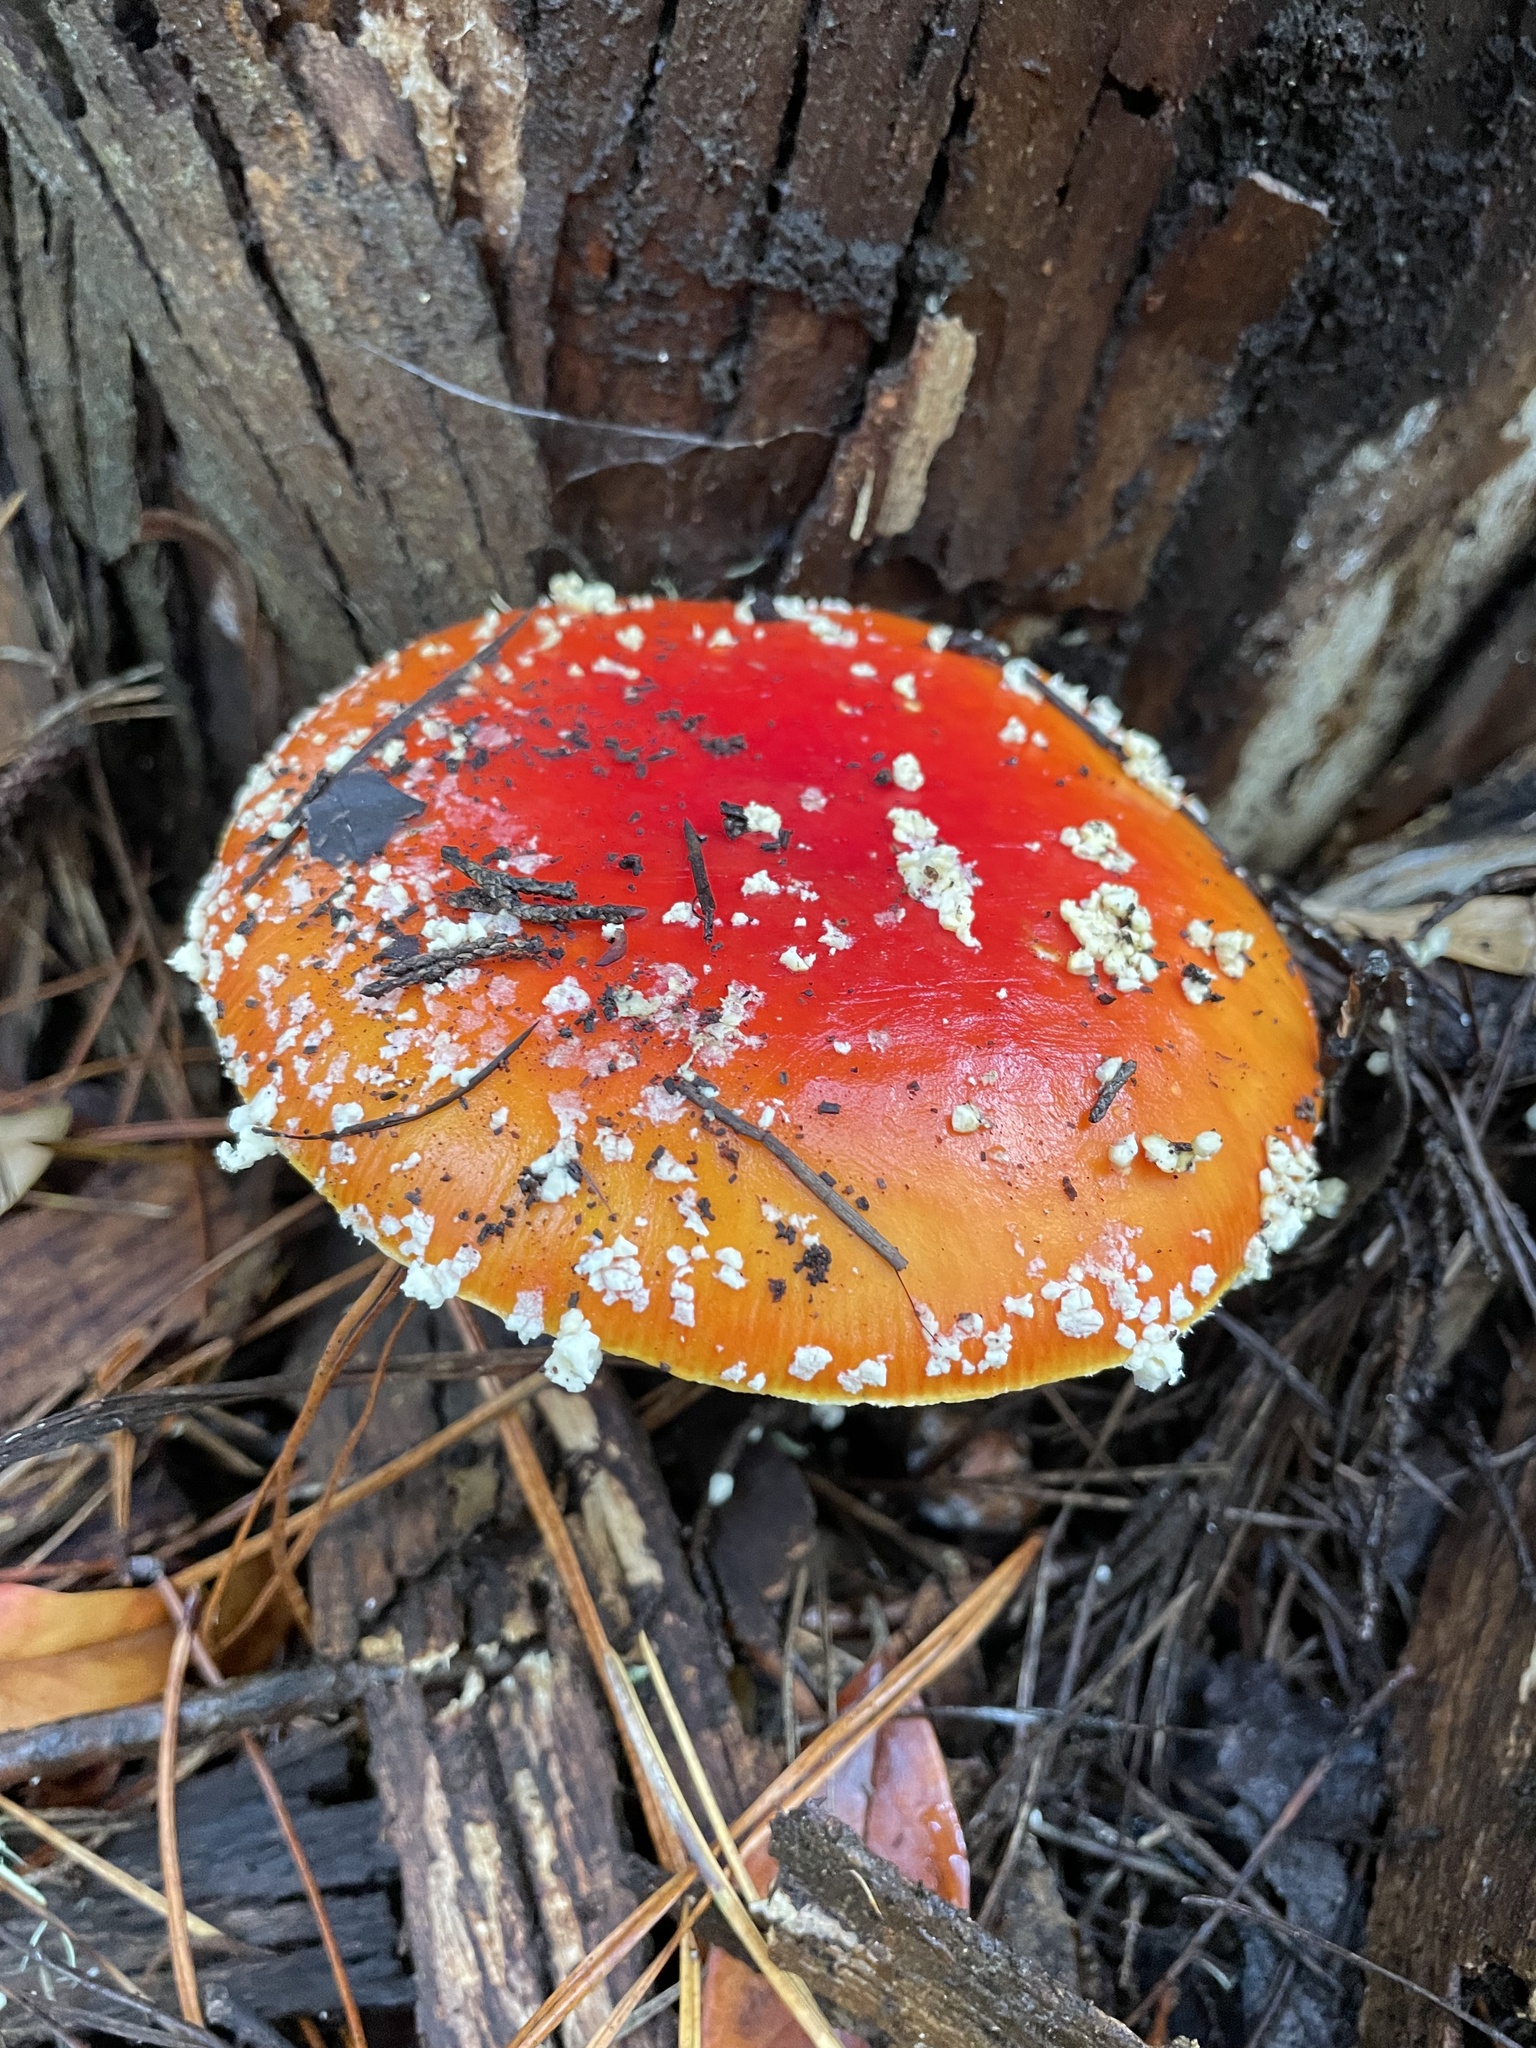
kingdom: Fungi
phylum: Basidiomycota
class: Agaricomycetes
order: Agaricales
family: Amanitaceae
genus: Amanita
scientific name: Amanita muscaria
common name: Fly agaric
